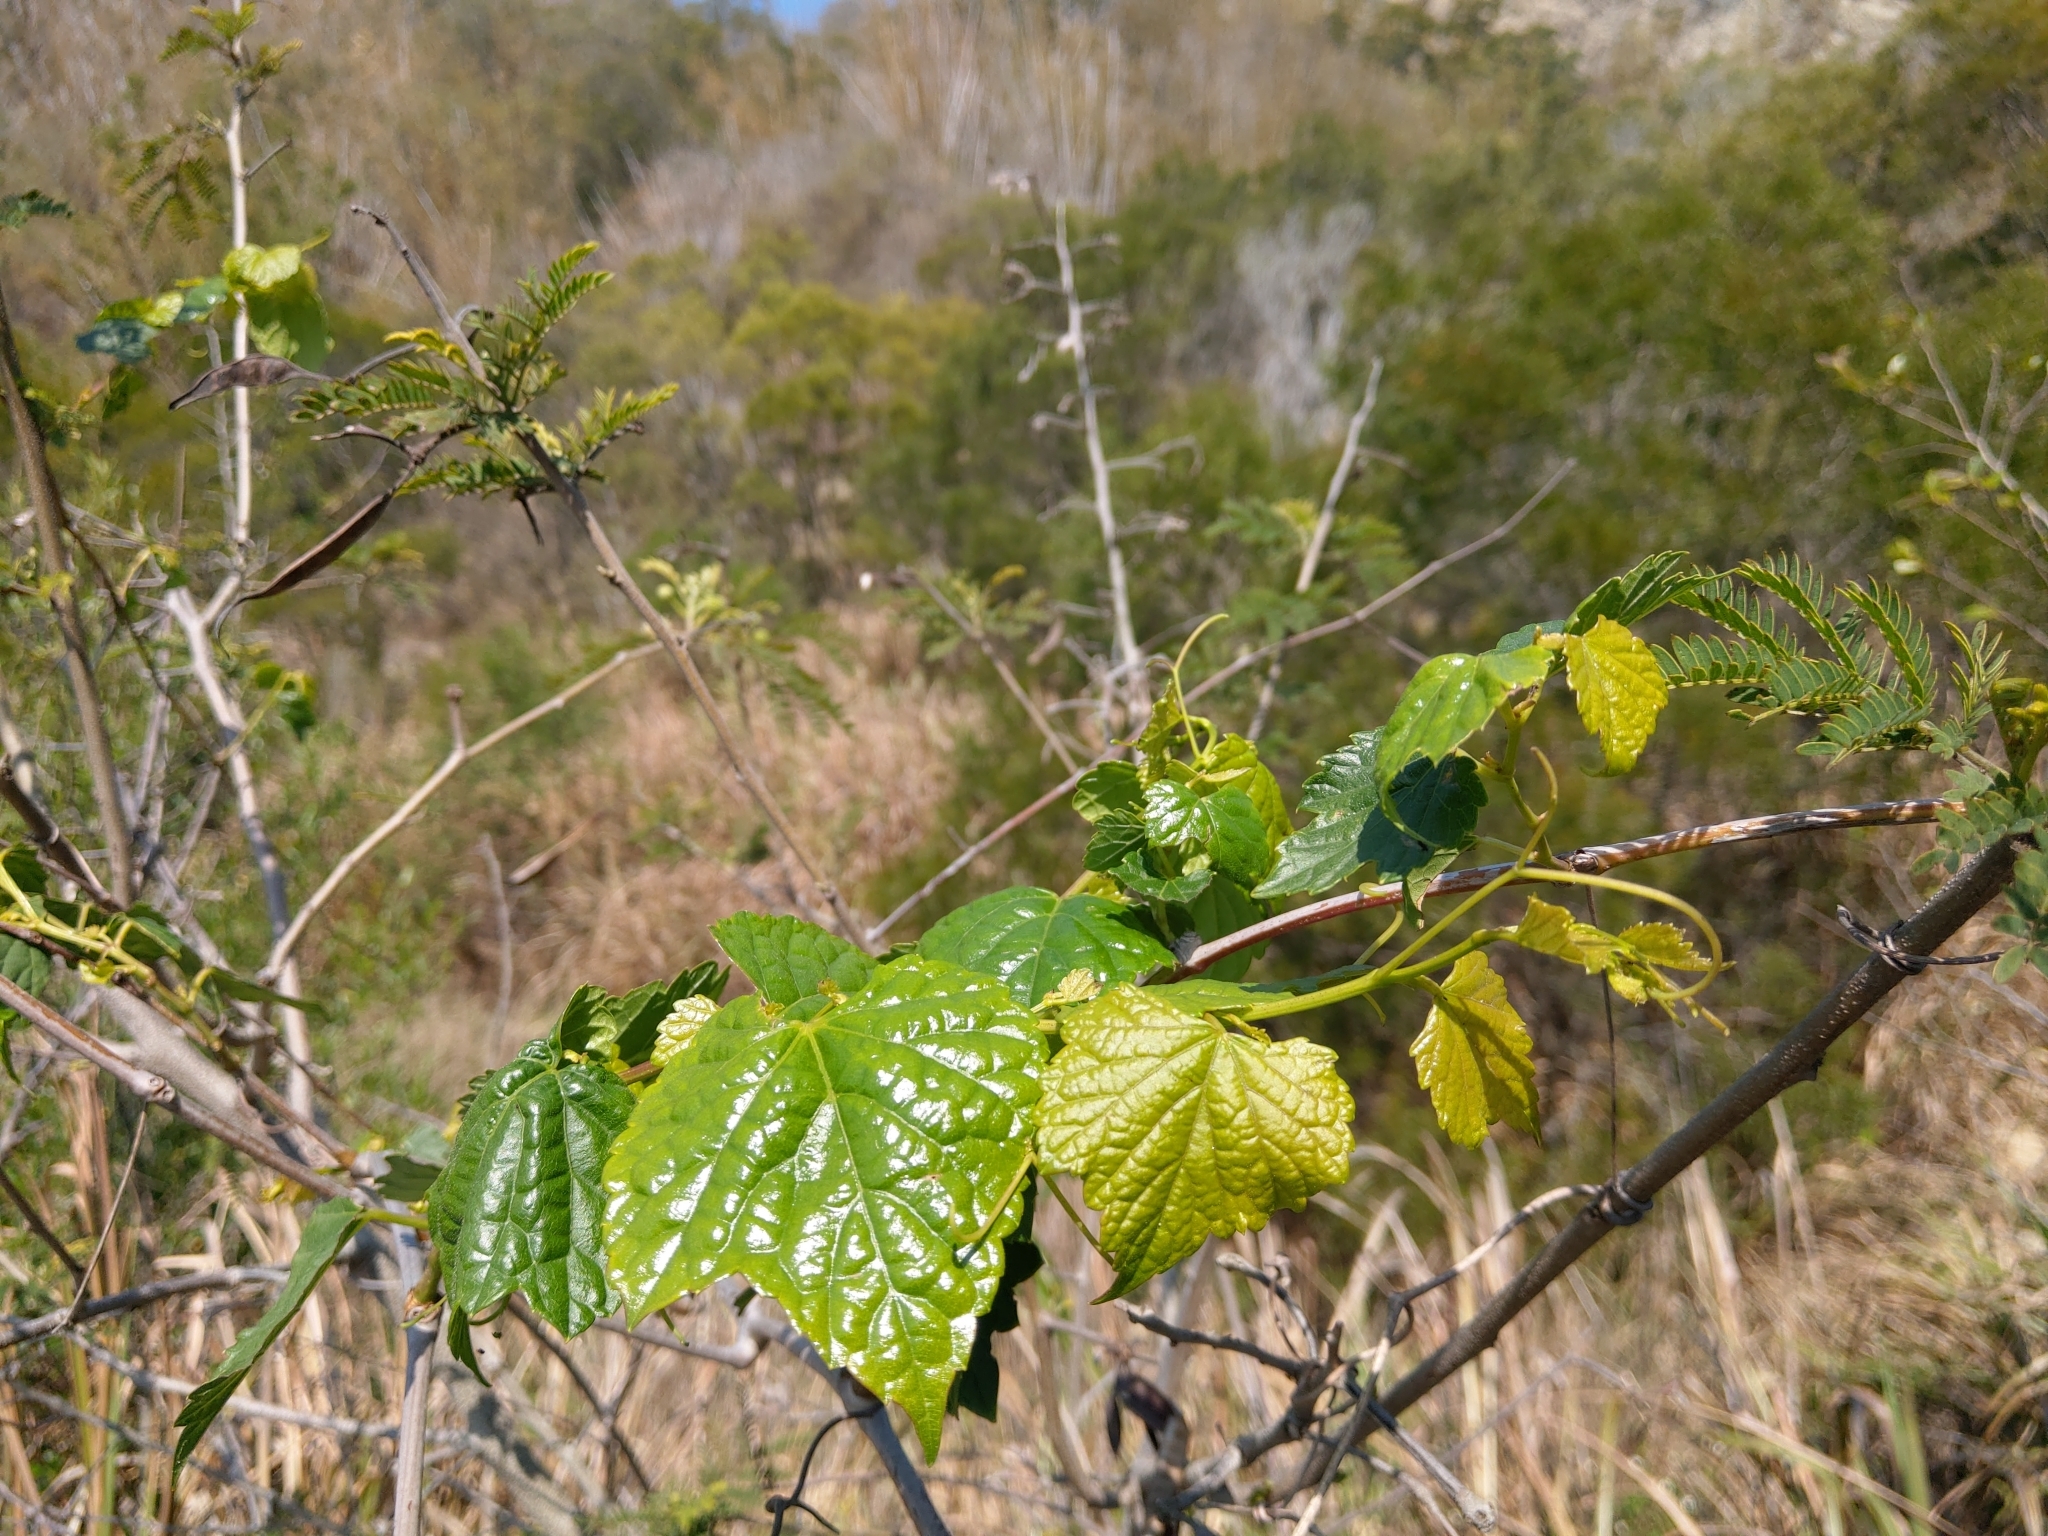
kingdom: Plantae
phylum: Tracheophyta
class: Magnoliopsida
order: Vitales
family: Vitaceae
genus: Ampelopsis
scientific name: Ampelopsis glandulosa
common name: Amur peppervine
